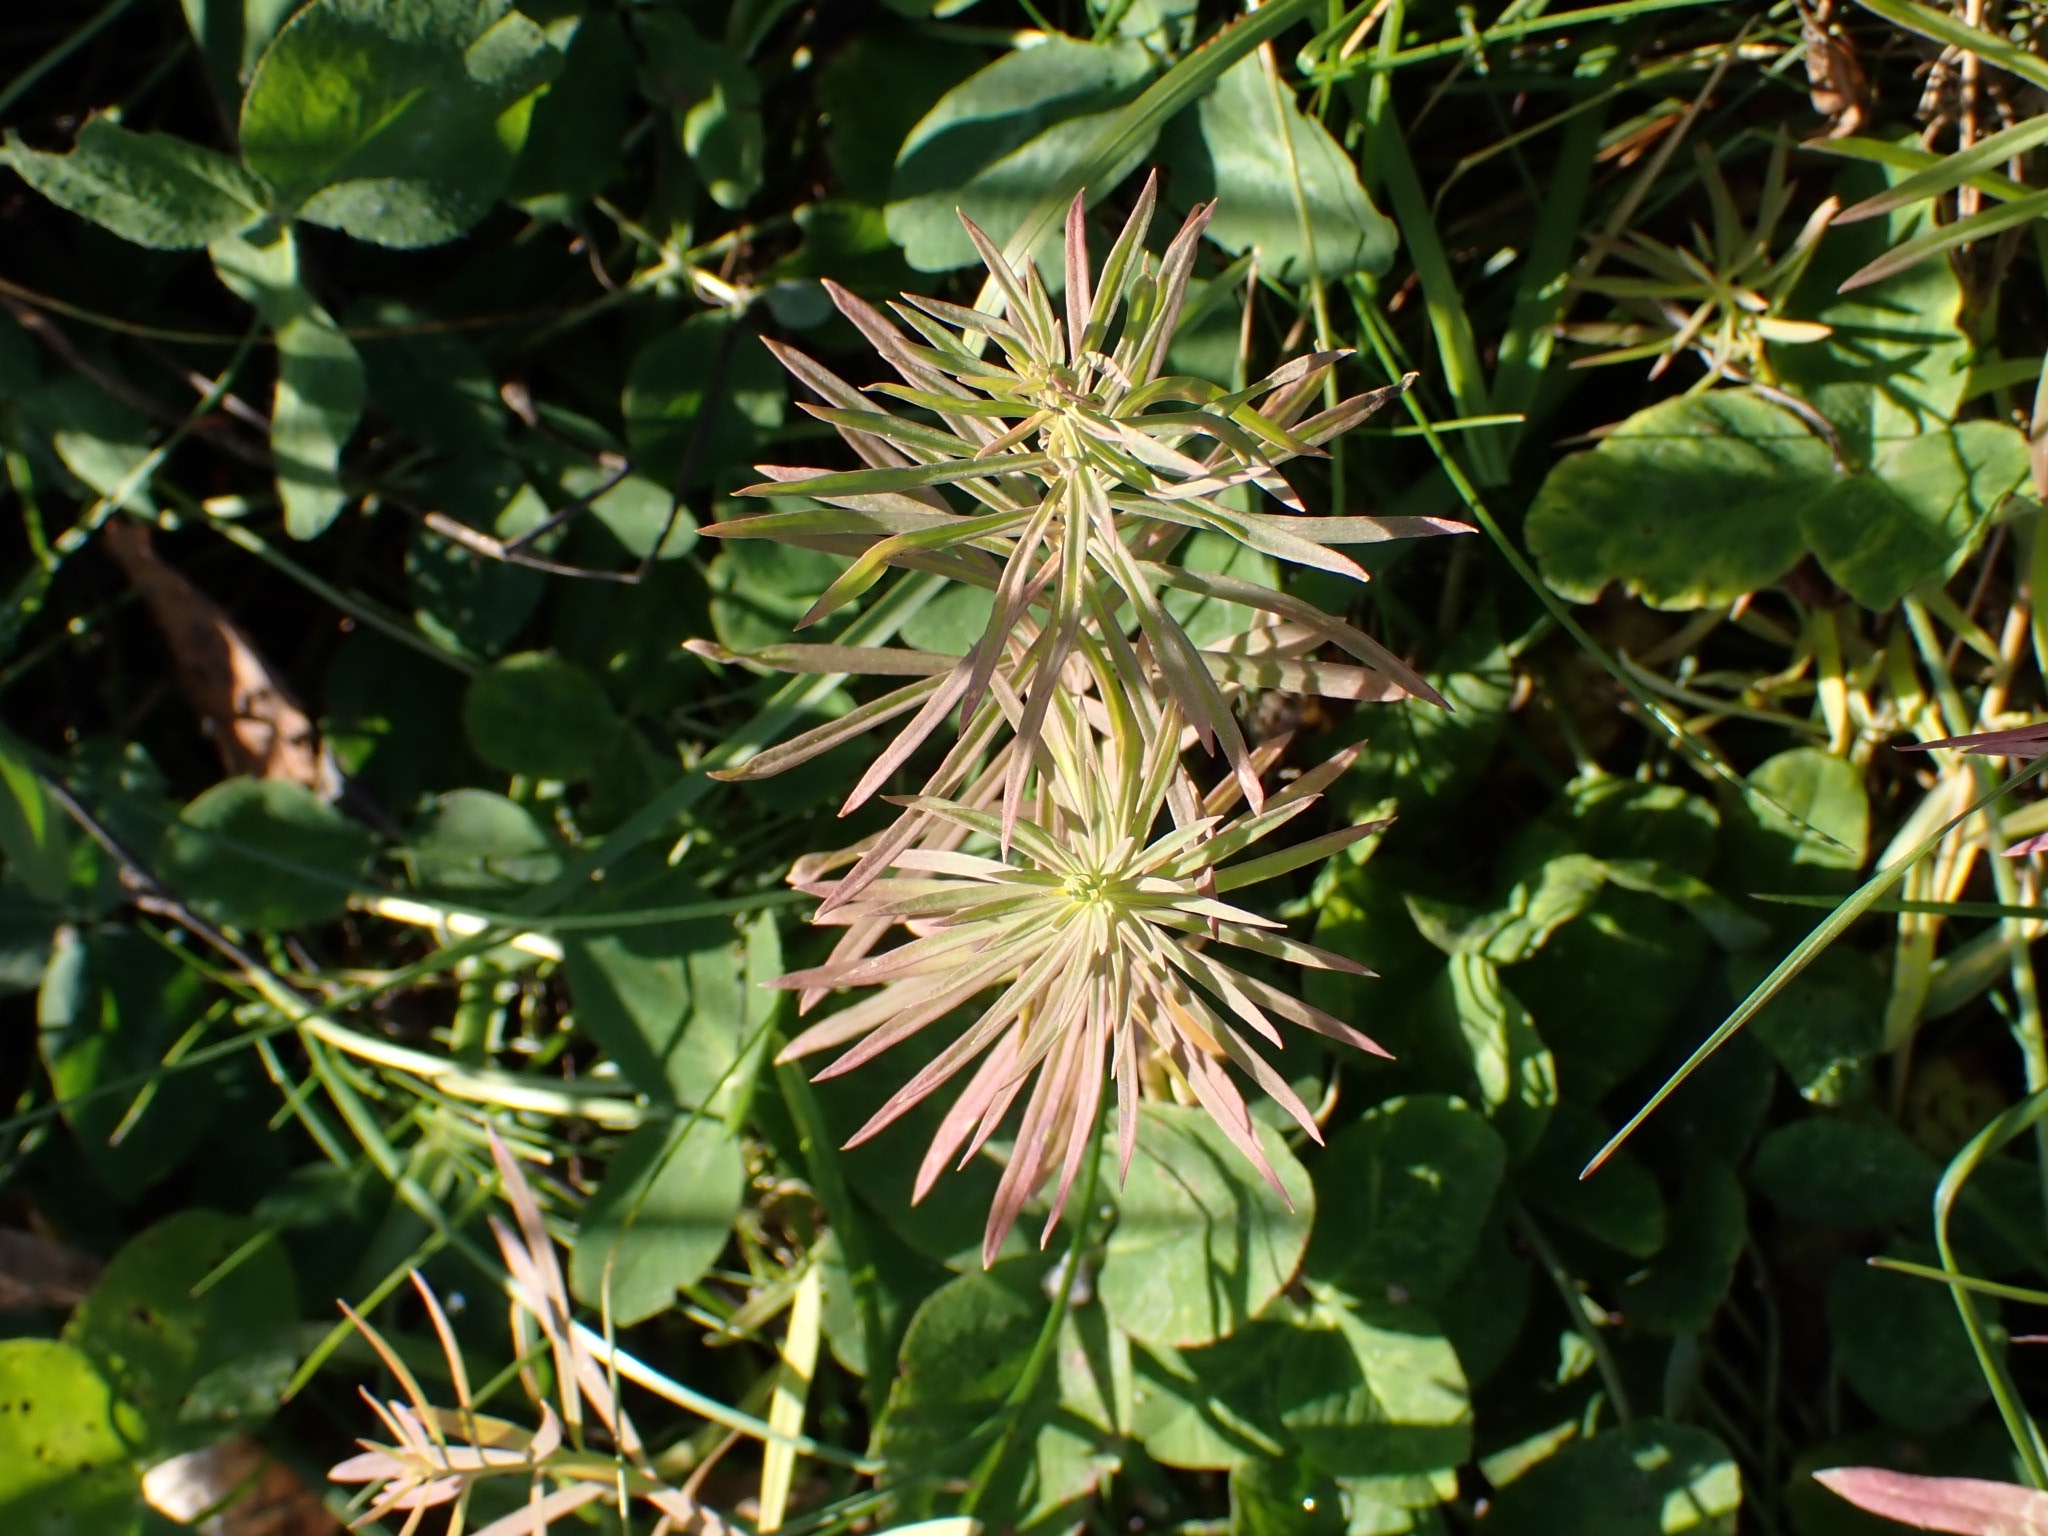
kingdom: Plantae
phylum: Tracheophyta
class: Magnoliopsida
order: Malpighiales
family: Euphorbiaceae
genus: Euphorbia
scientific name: Euphorbia virgata
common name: Leafy spurge
